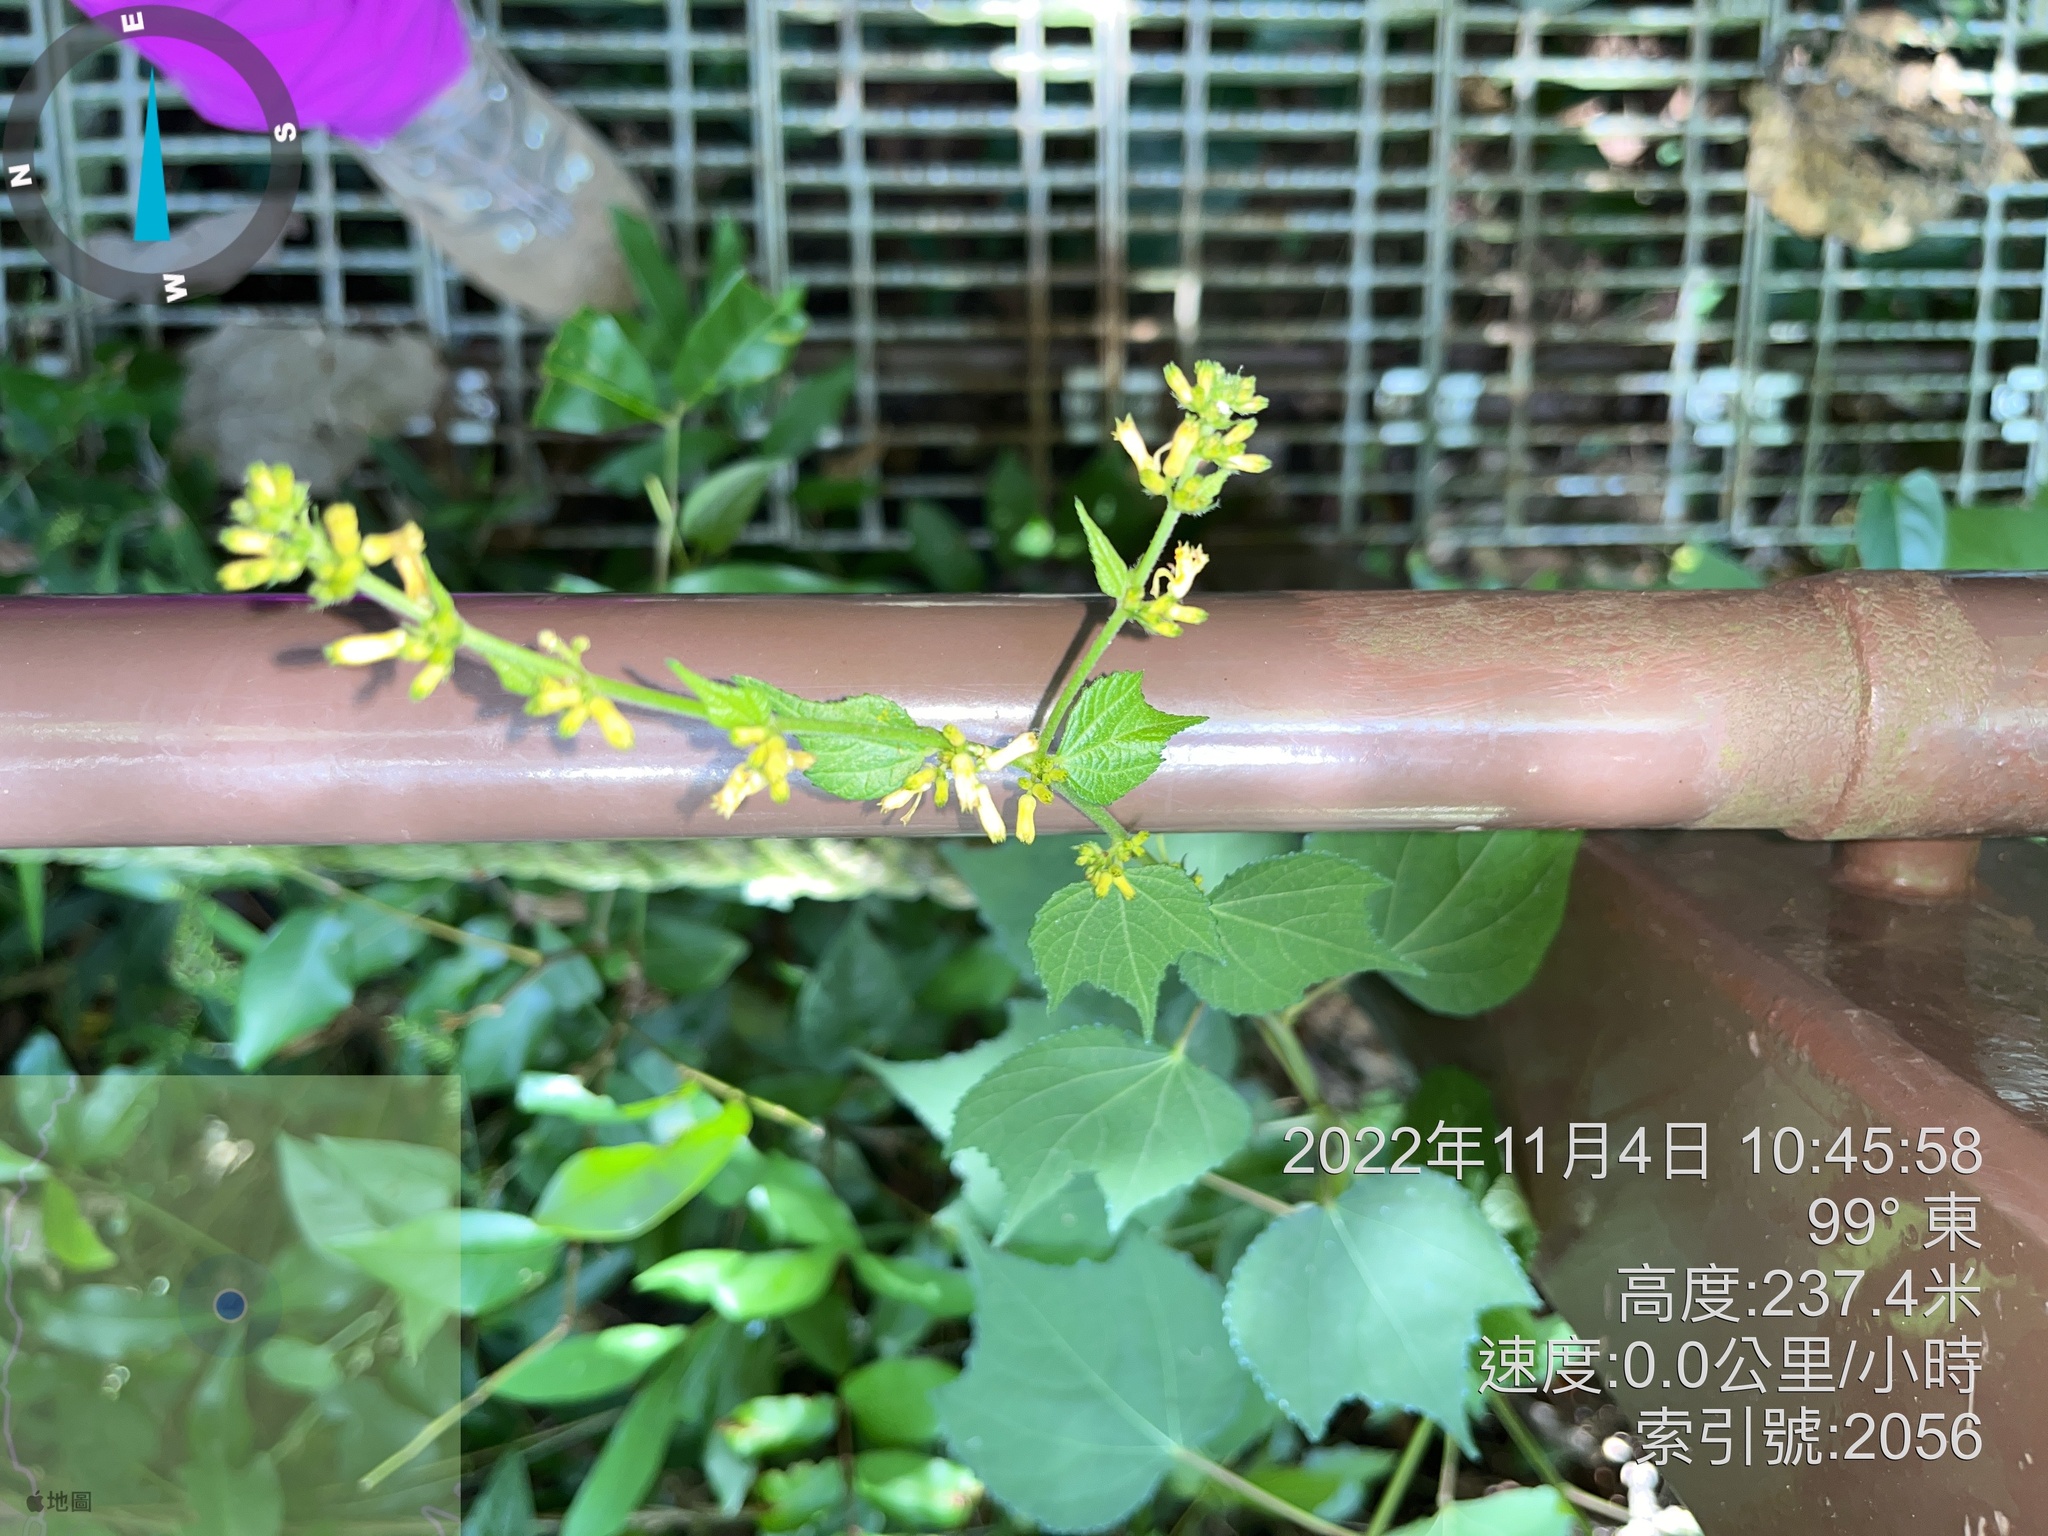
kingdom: Plantae
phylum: Tracheophyta
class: Magnoliopsida
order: Malvales
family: Malvaceae
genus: Triumfetta
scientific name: Triumfetta semitriloba
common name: Sacramento burbark
